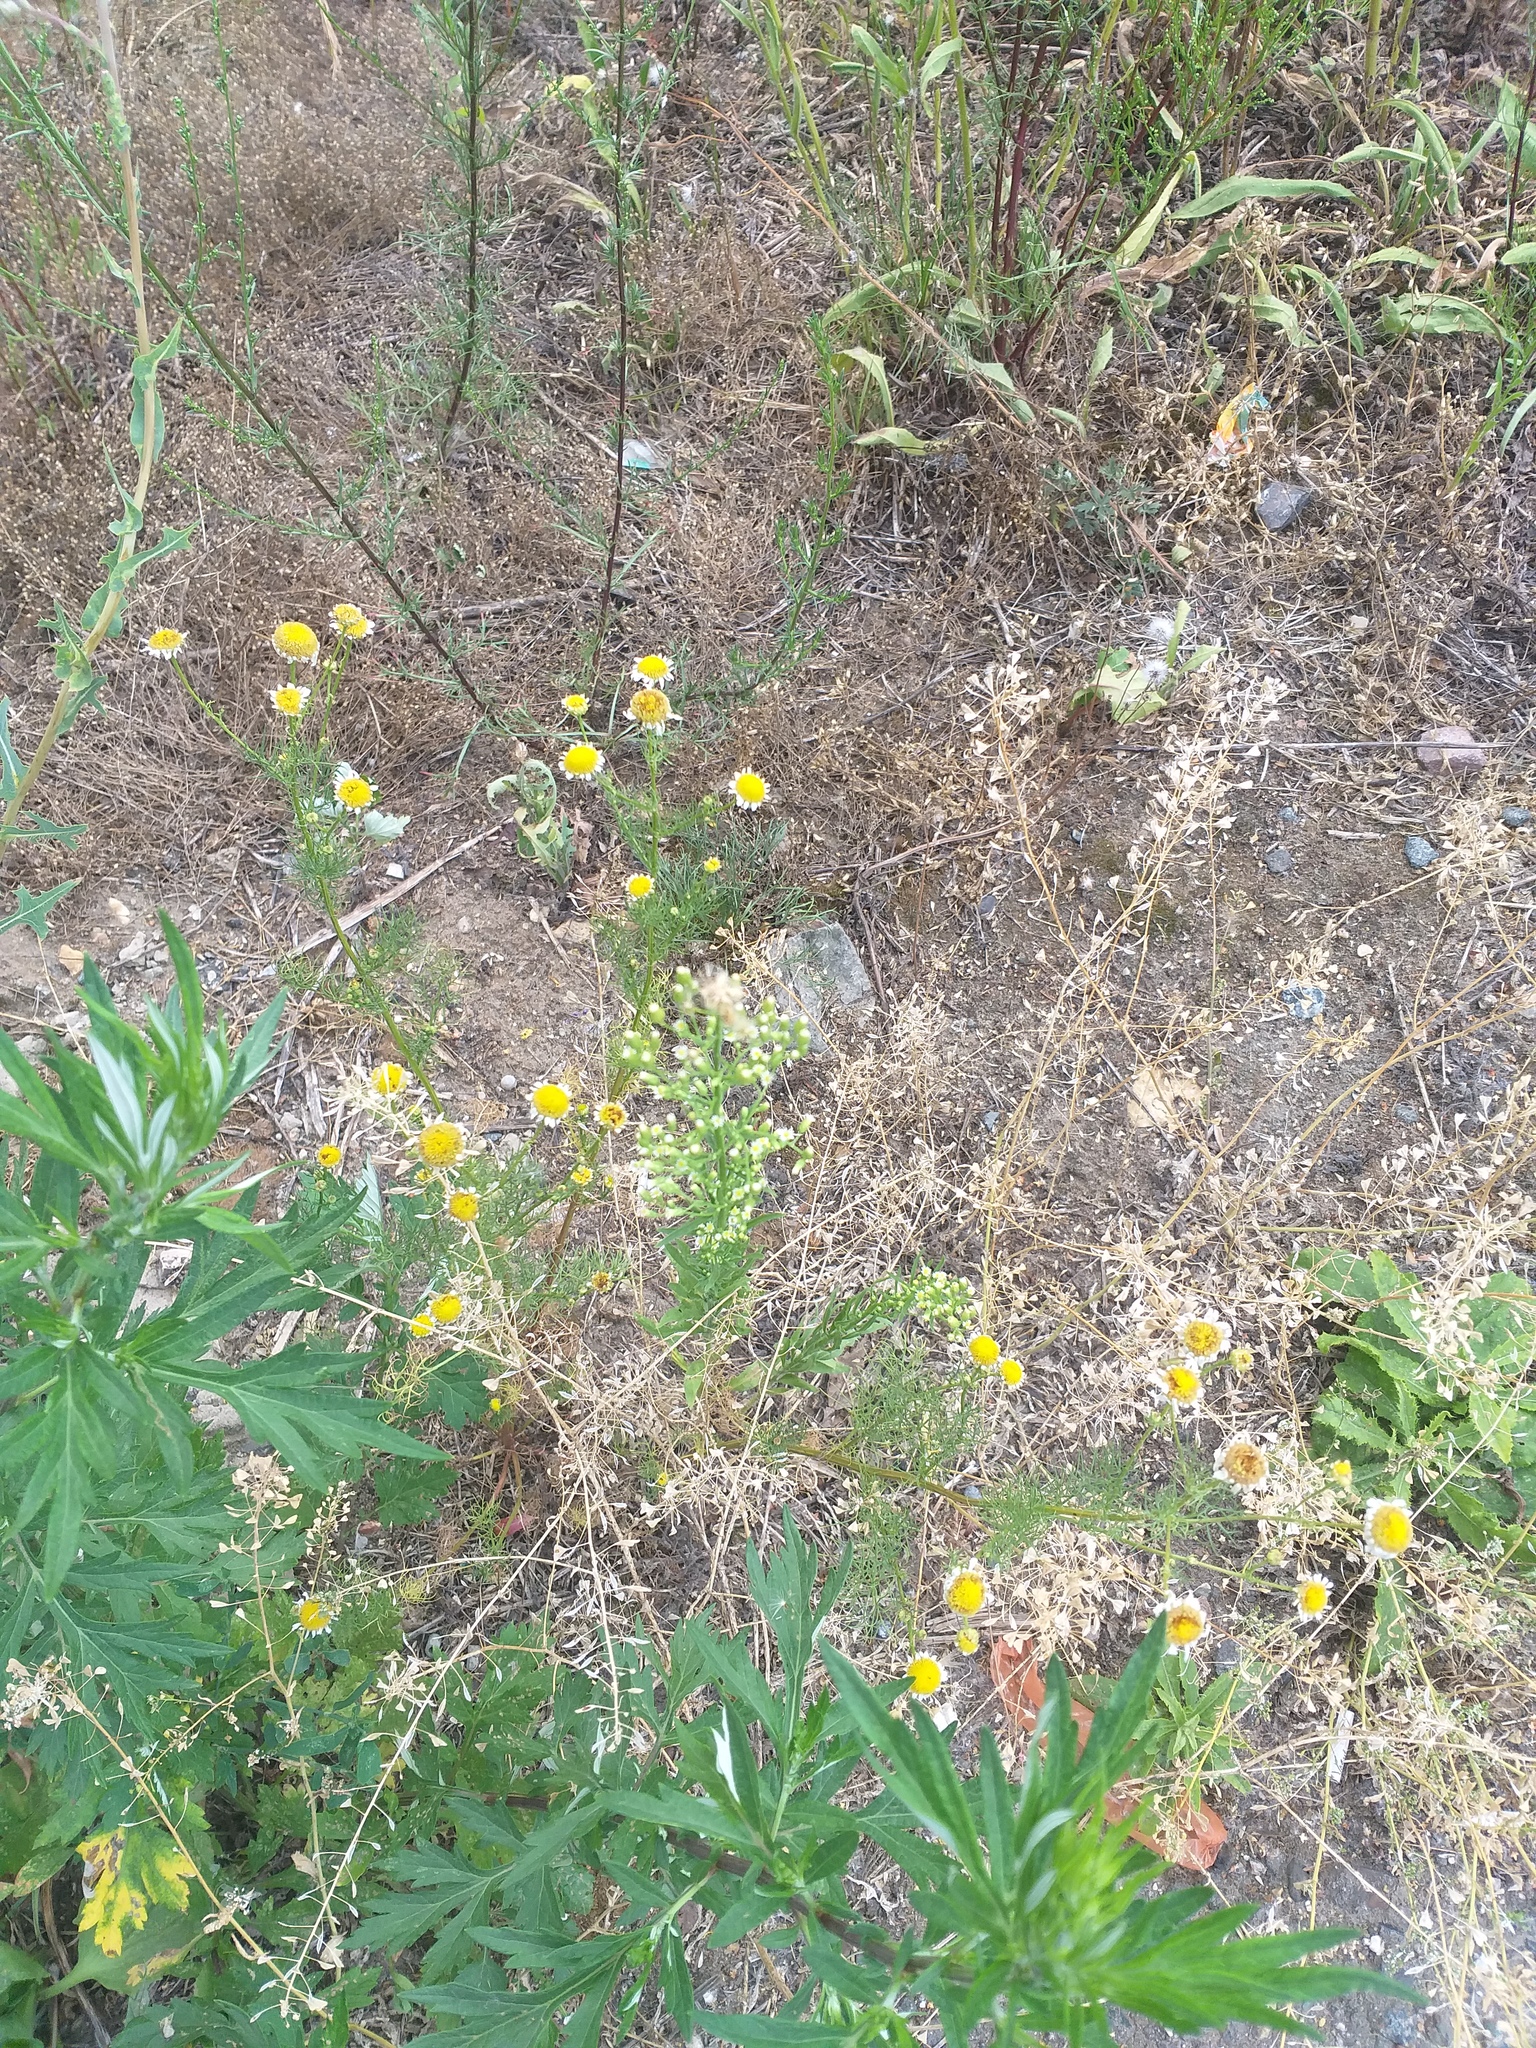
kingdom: Plantae
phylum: Tracheophyta
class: Magnoliopsida
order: Asterales
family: Asteraceae
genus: Tripleurospermum
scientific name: Tripleurospermum inodorum
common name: Scentless mayweed
